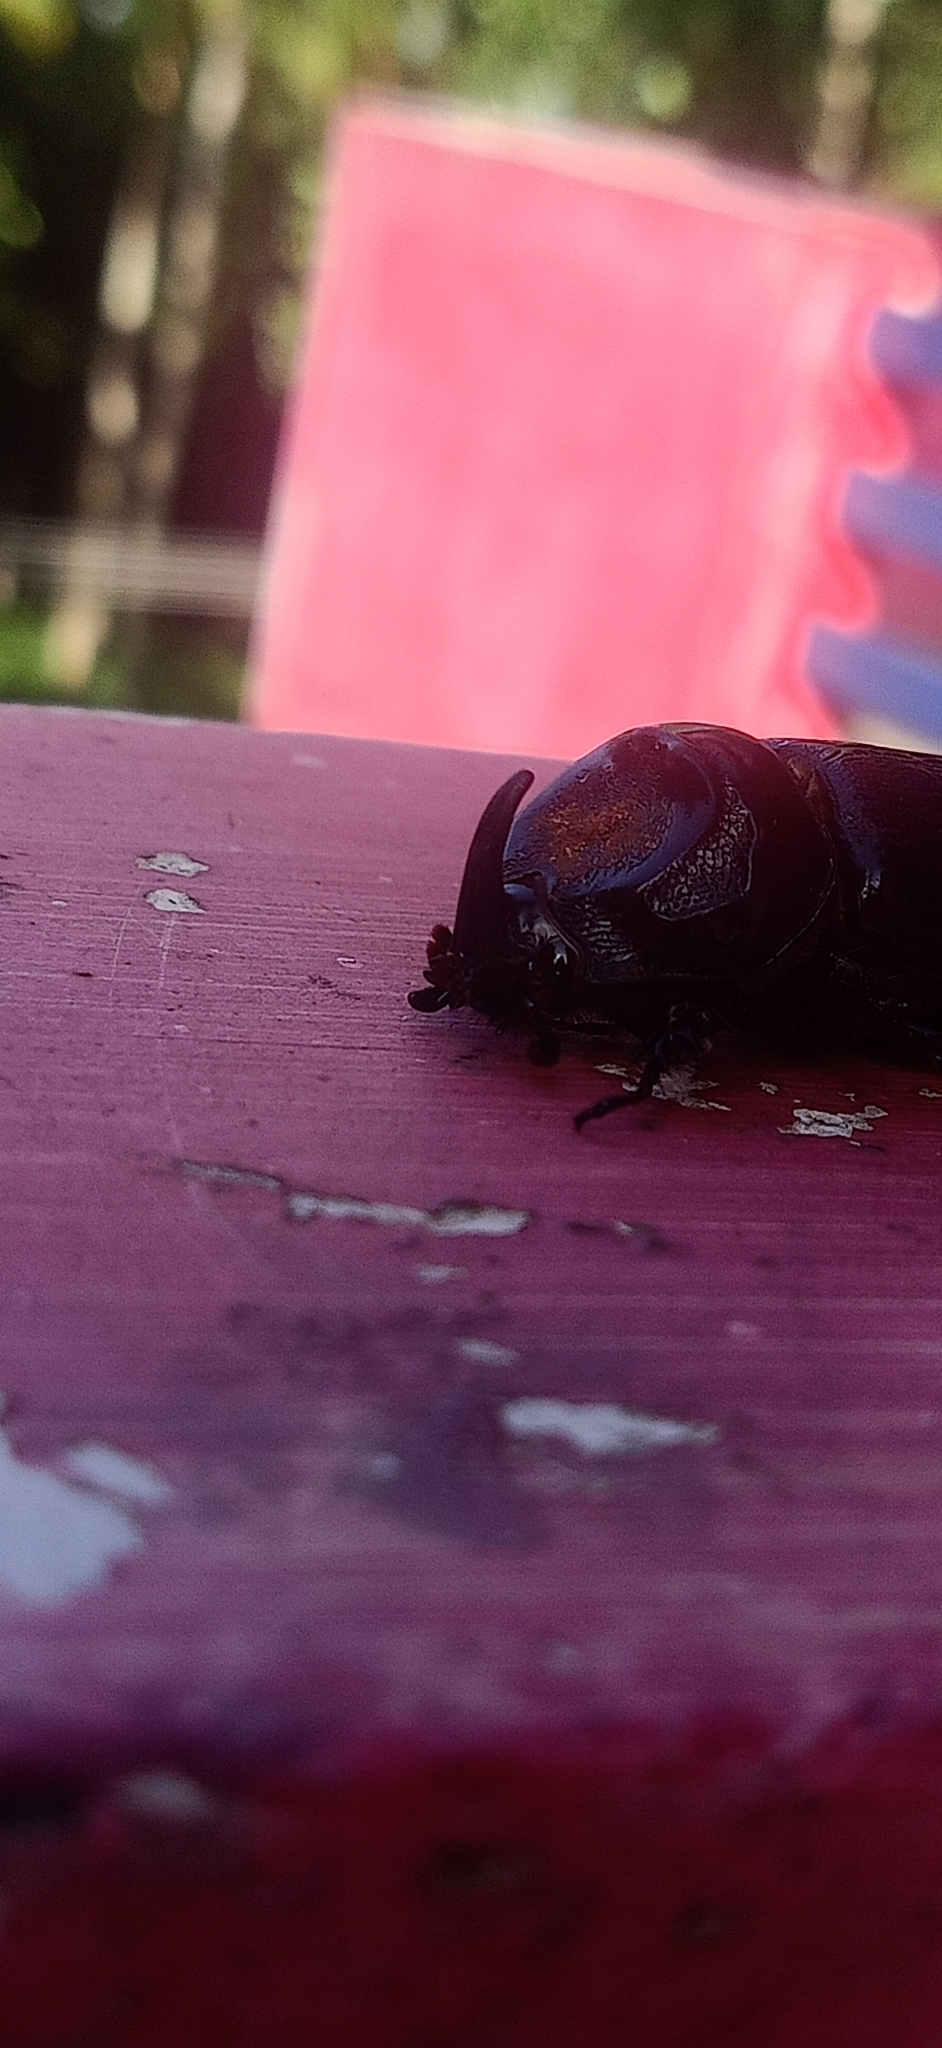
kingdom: Animalia
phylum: Arthropoda
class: Insecta
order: Coleoptera
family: Scarabaeidae
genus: Oryctes
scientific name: Oryctes rhinoceros
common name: Coconut rhinoceros beetle
